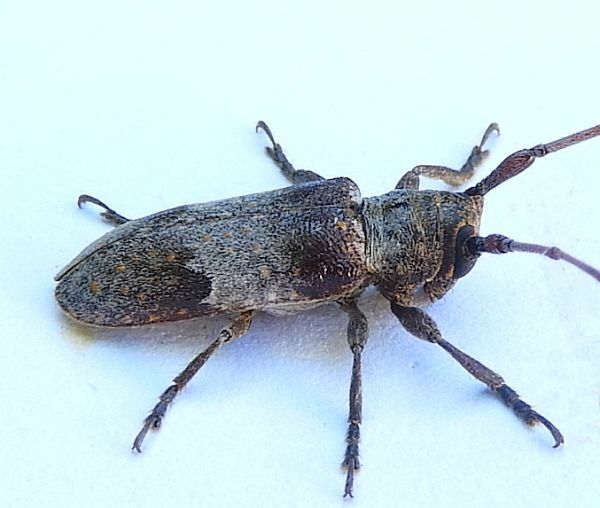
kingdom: Animalia
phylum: Arthropoda
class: Insecta
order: Coleoptera
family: Cerambycidae
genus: Oncideres
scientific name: Oncideres cingulata
